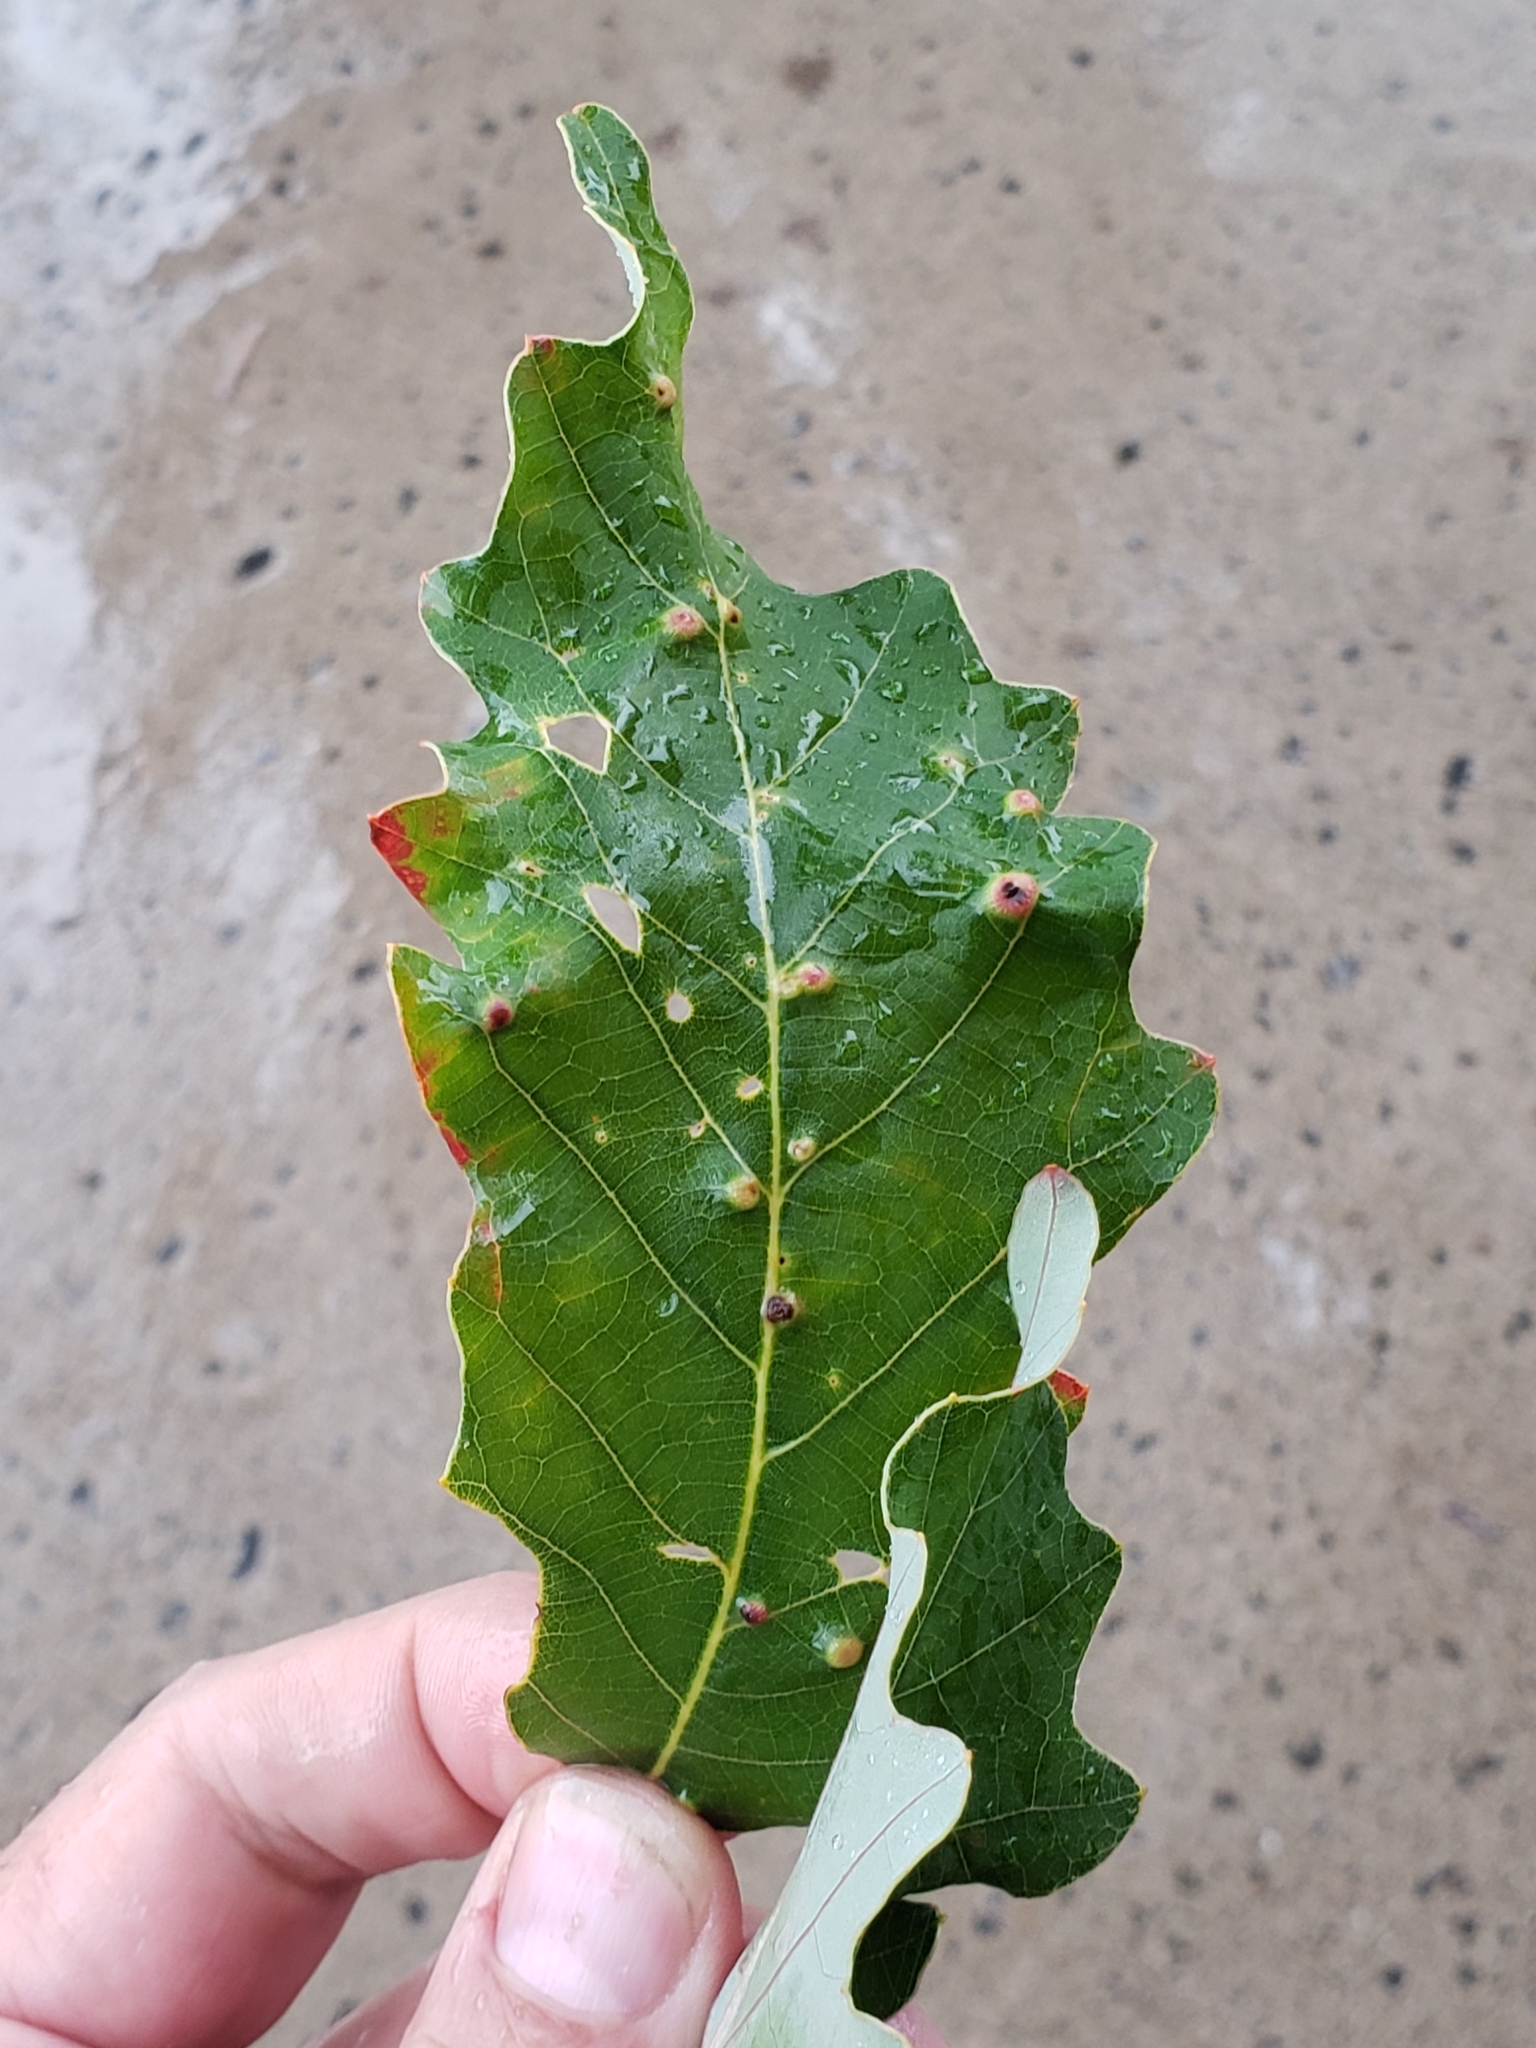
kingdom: Animalia
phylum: Arthropoda
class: Insecta
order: Hymenoptera
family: Cynipidae
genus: Neuroterus
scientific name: Neuroterus quercusverrucarum
